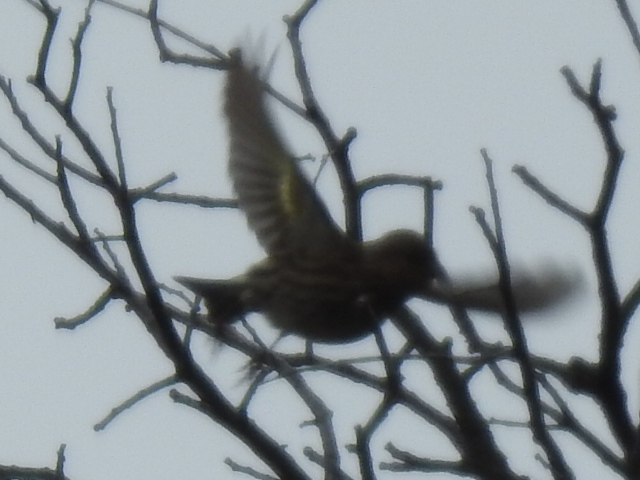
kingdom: Animalia
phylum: Chordata
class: Aves
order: Passeriformes
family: Fringillidae
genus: Spinus
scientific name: Spinus pinus
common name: Pine siskin
